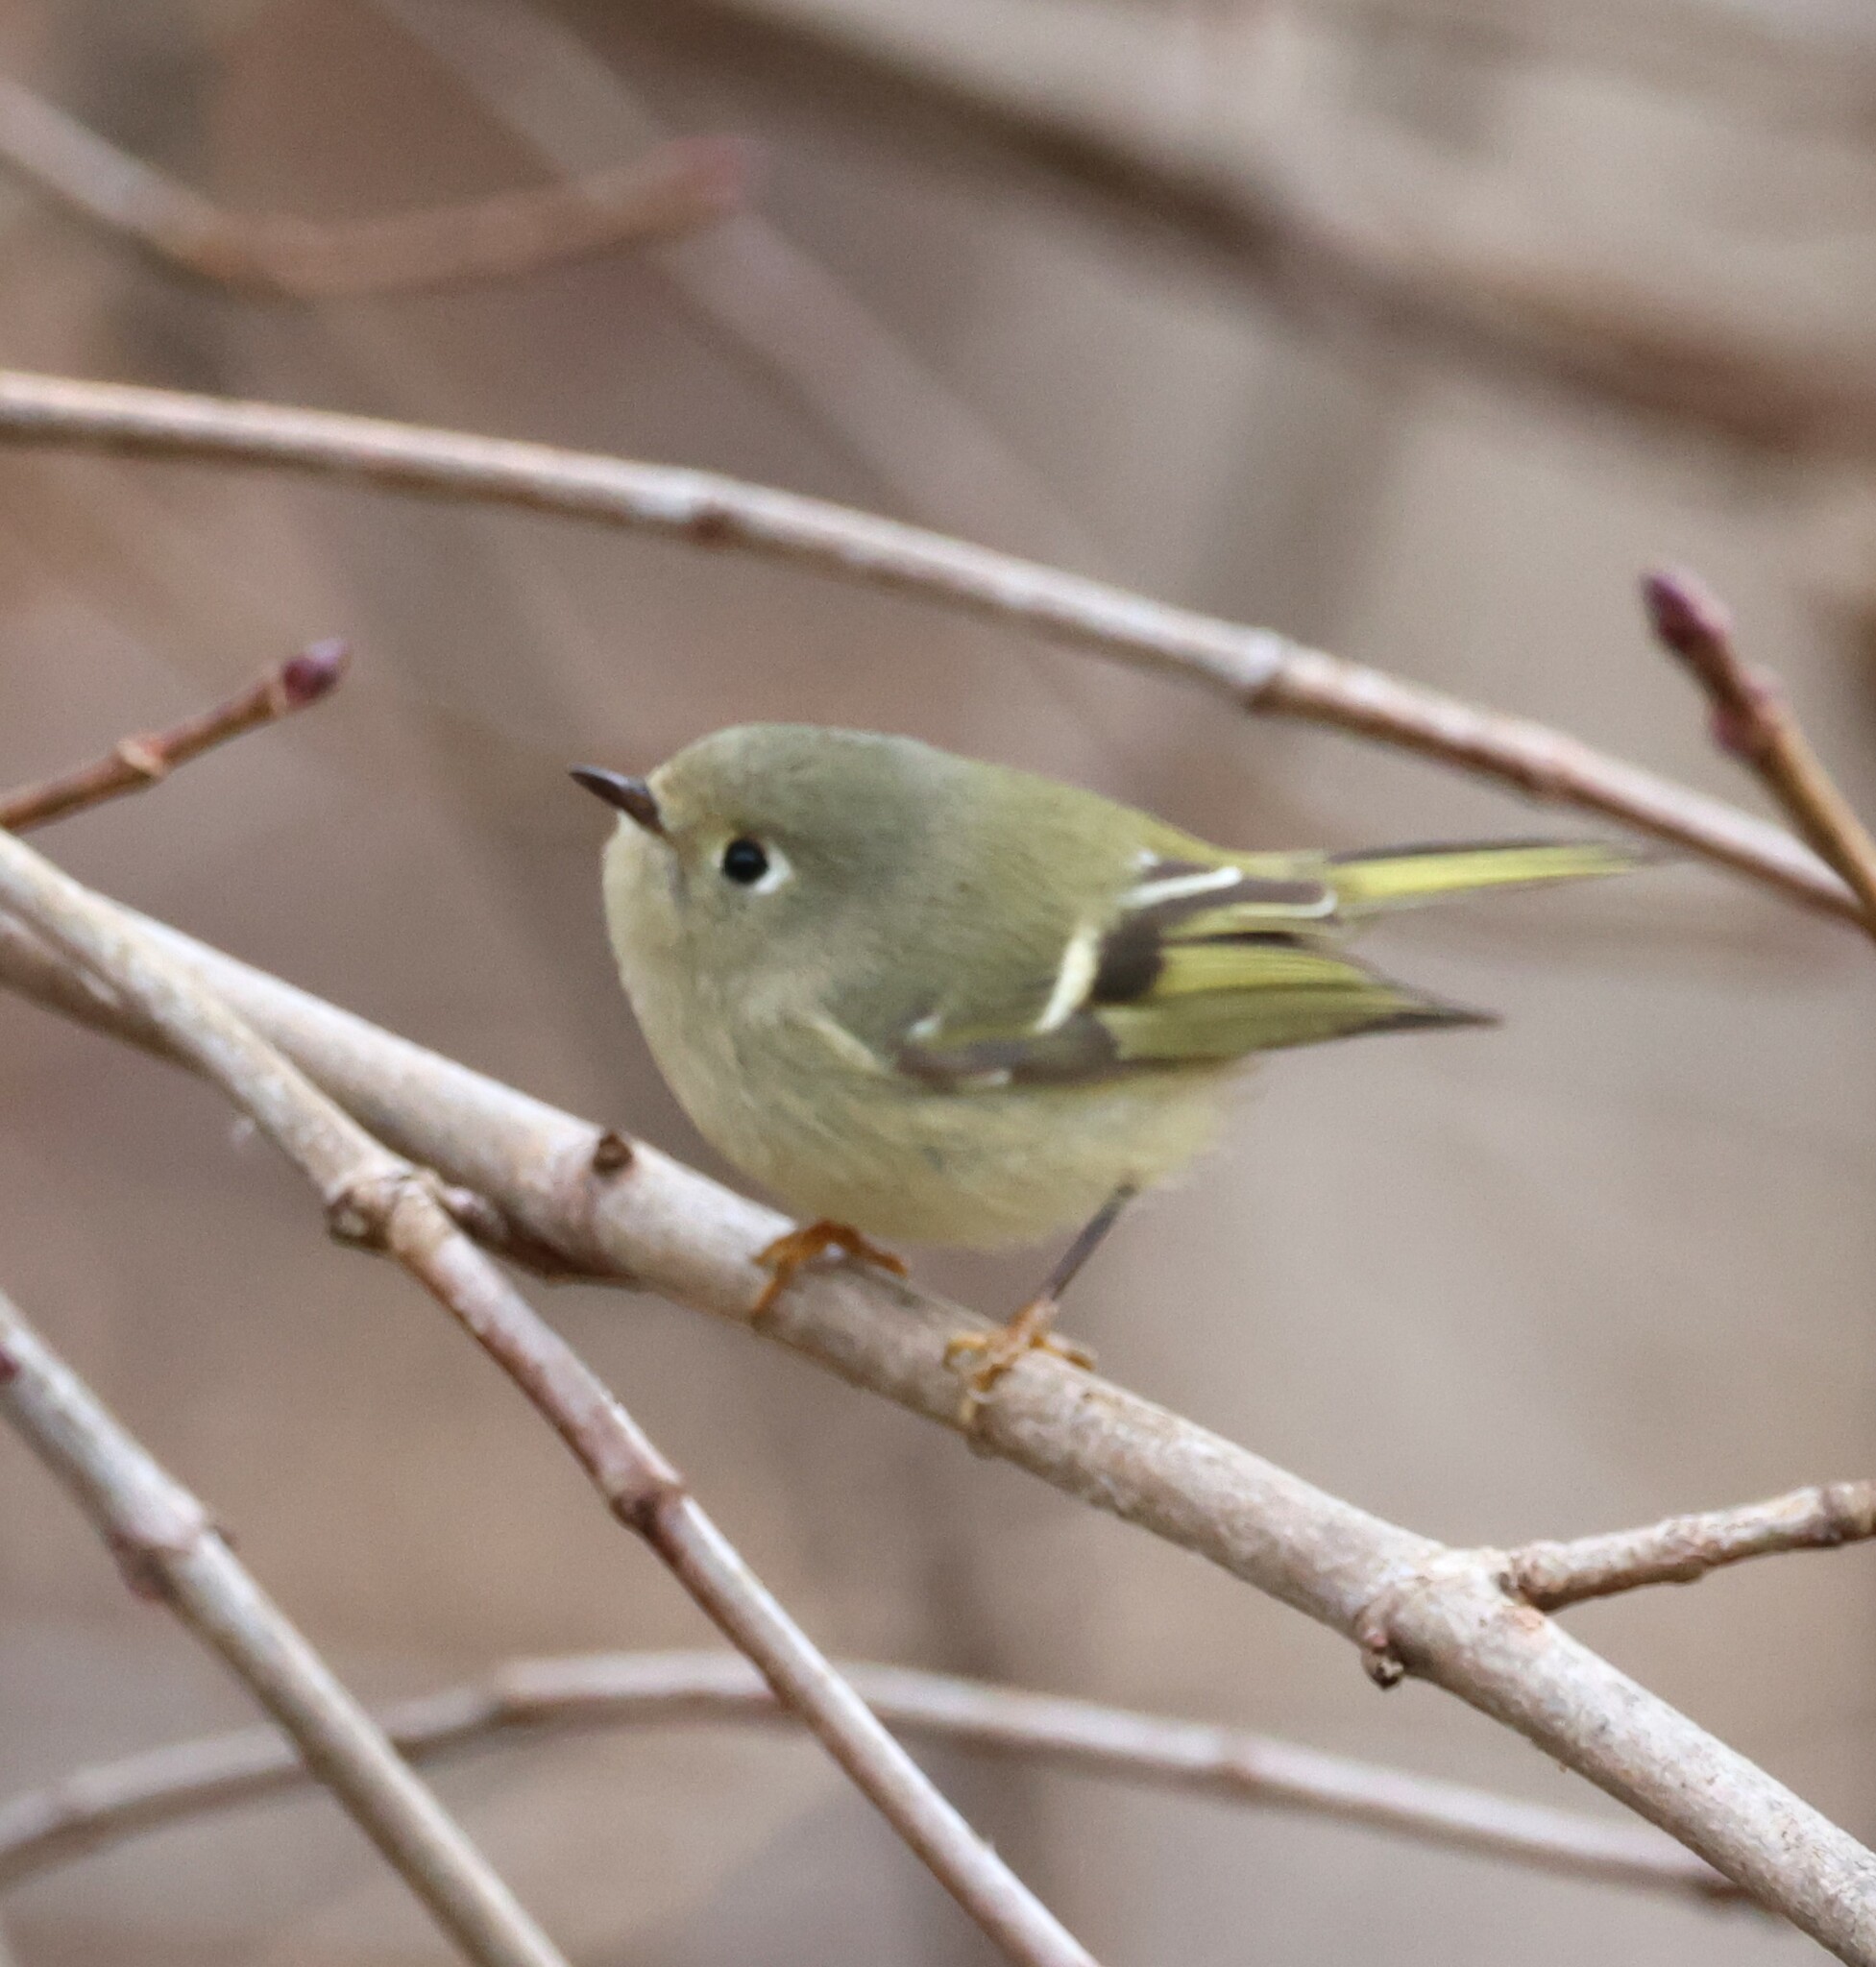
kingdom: Animalia
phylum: Chordata
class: Aves
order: Passeriformes
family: Regulidae
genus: Regulus
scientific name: Regulus calendula
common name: Ruby-crowned kinglet
